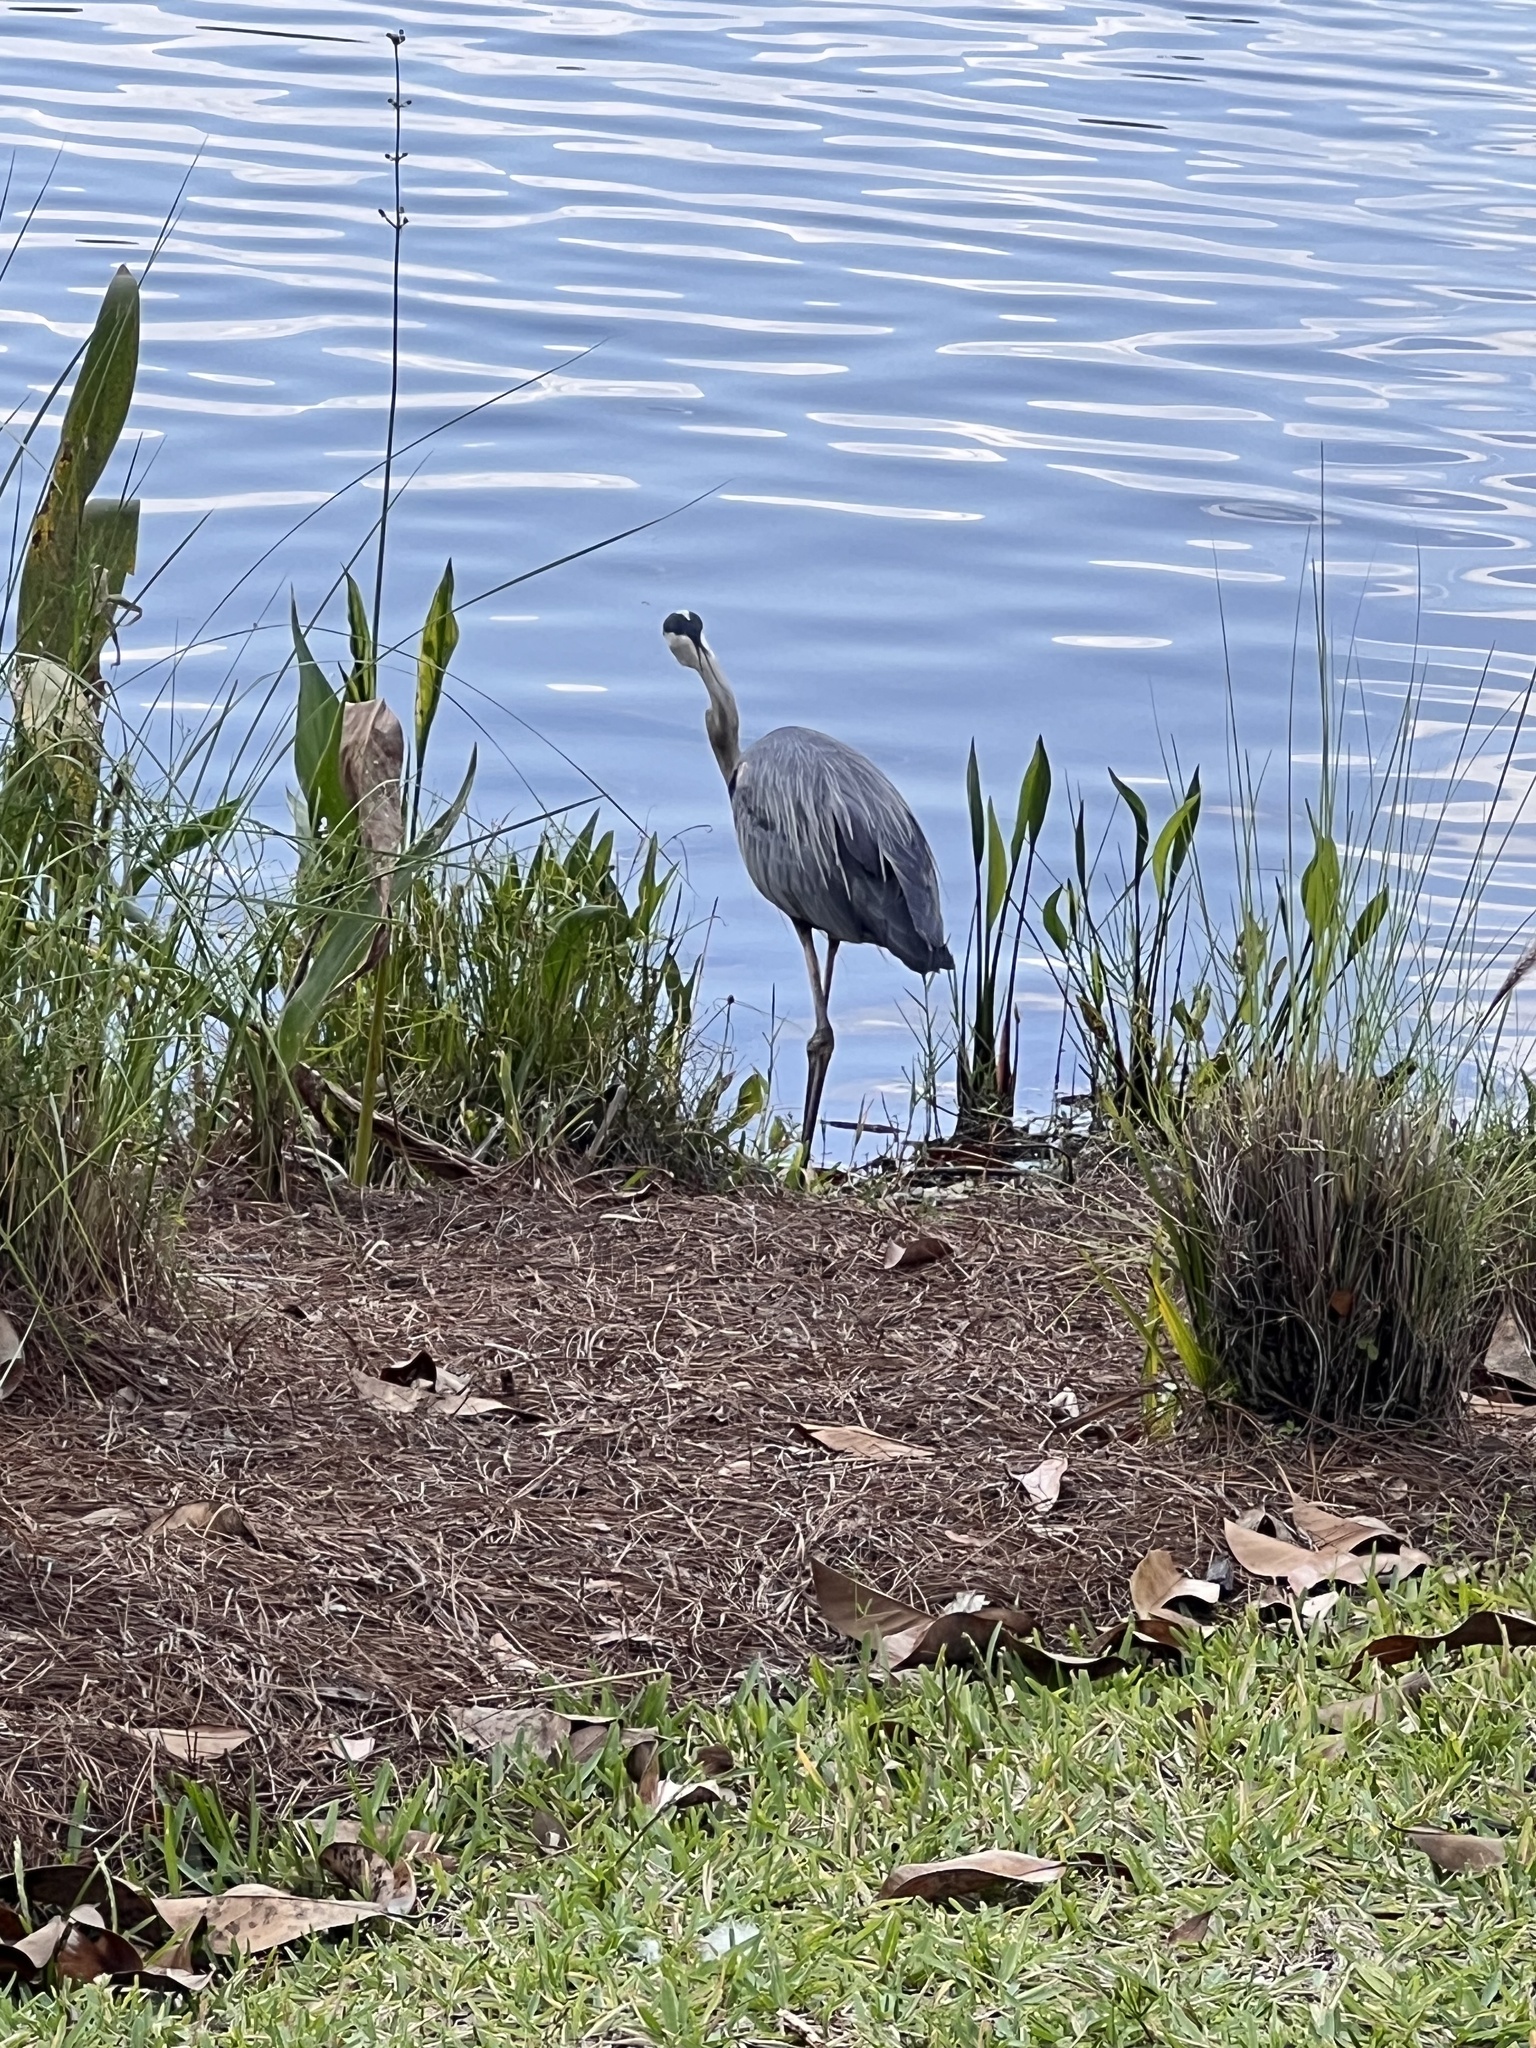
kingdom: Animalia
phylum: Chordata
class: Aves
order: Pelecaniformes
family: Ardeidae
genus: Ardea
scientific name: Ardea herodias
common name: Great blue heron
